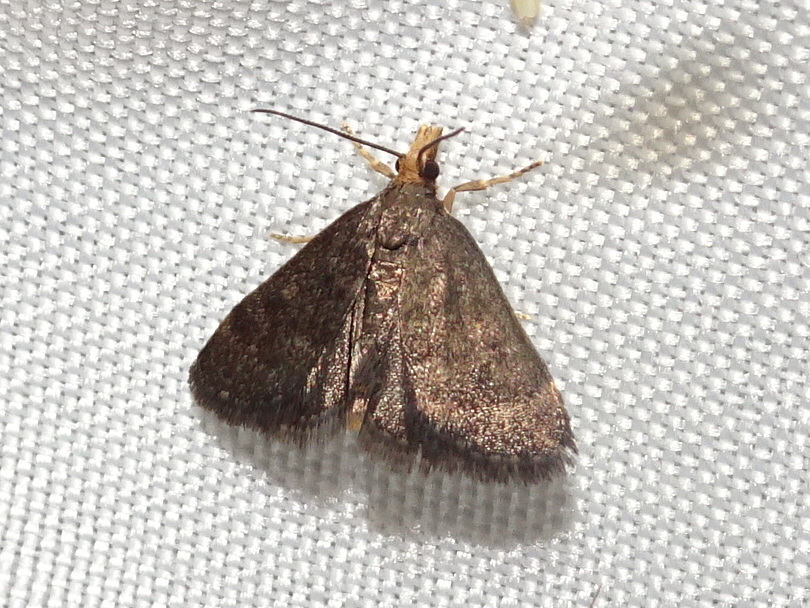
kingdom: Animalia
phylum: Arthropoda
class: Insecta
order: Lepidoptera
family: Crambidae
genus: Pyrausta
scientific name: Pyrausta merrickalis
